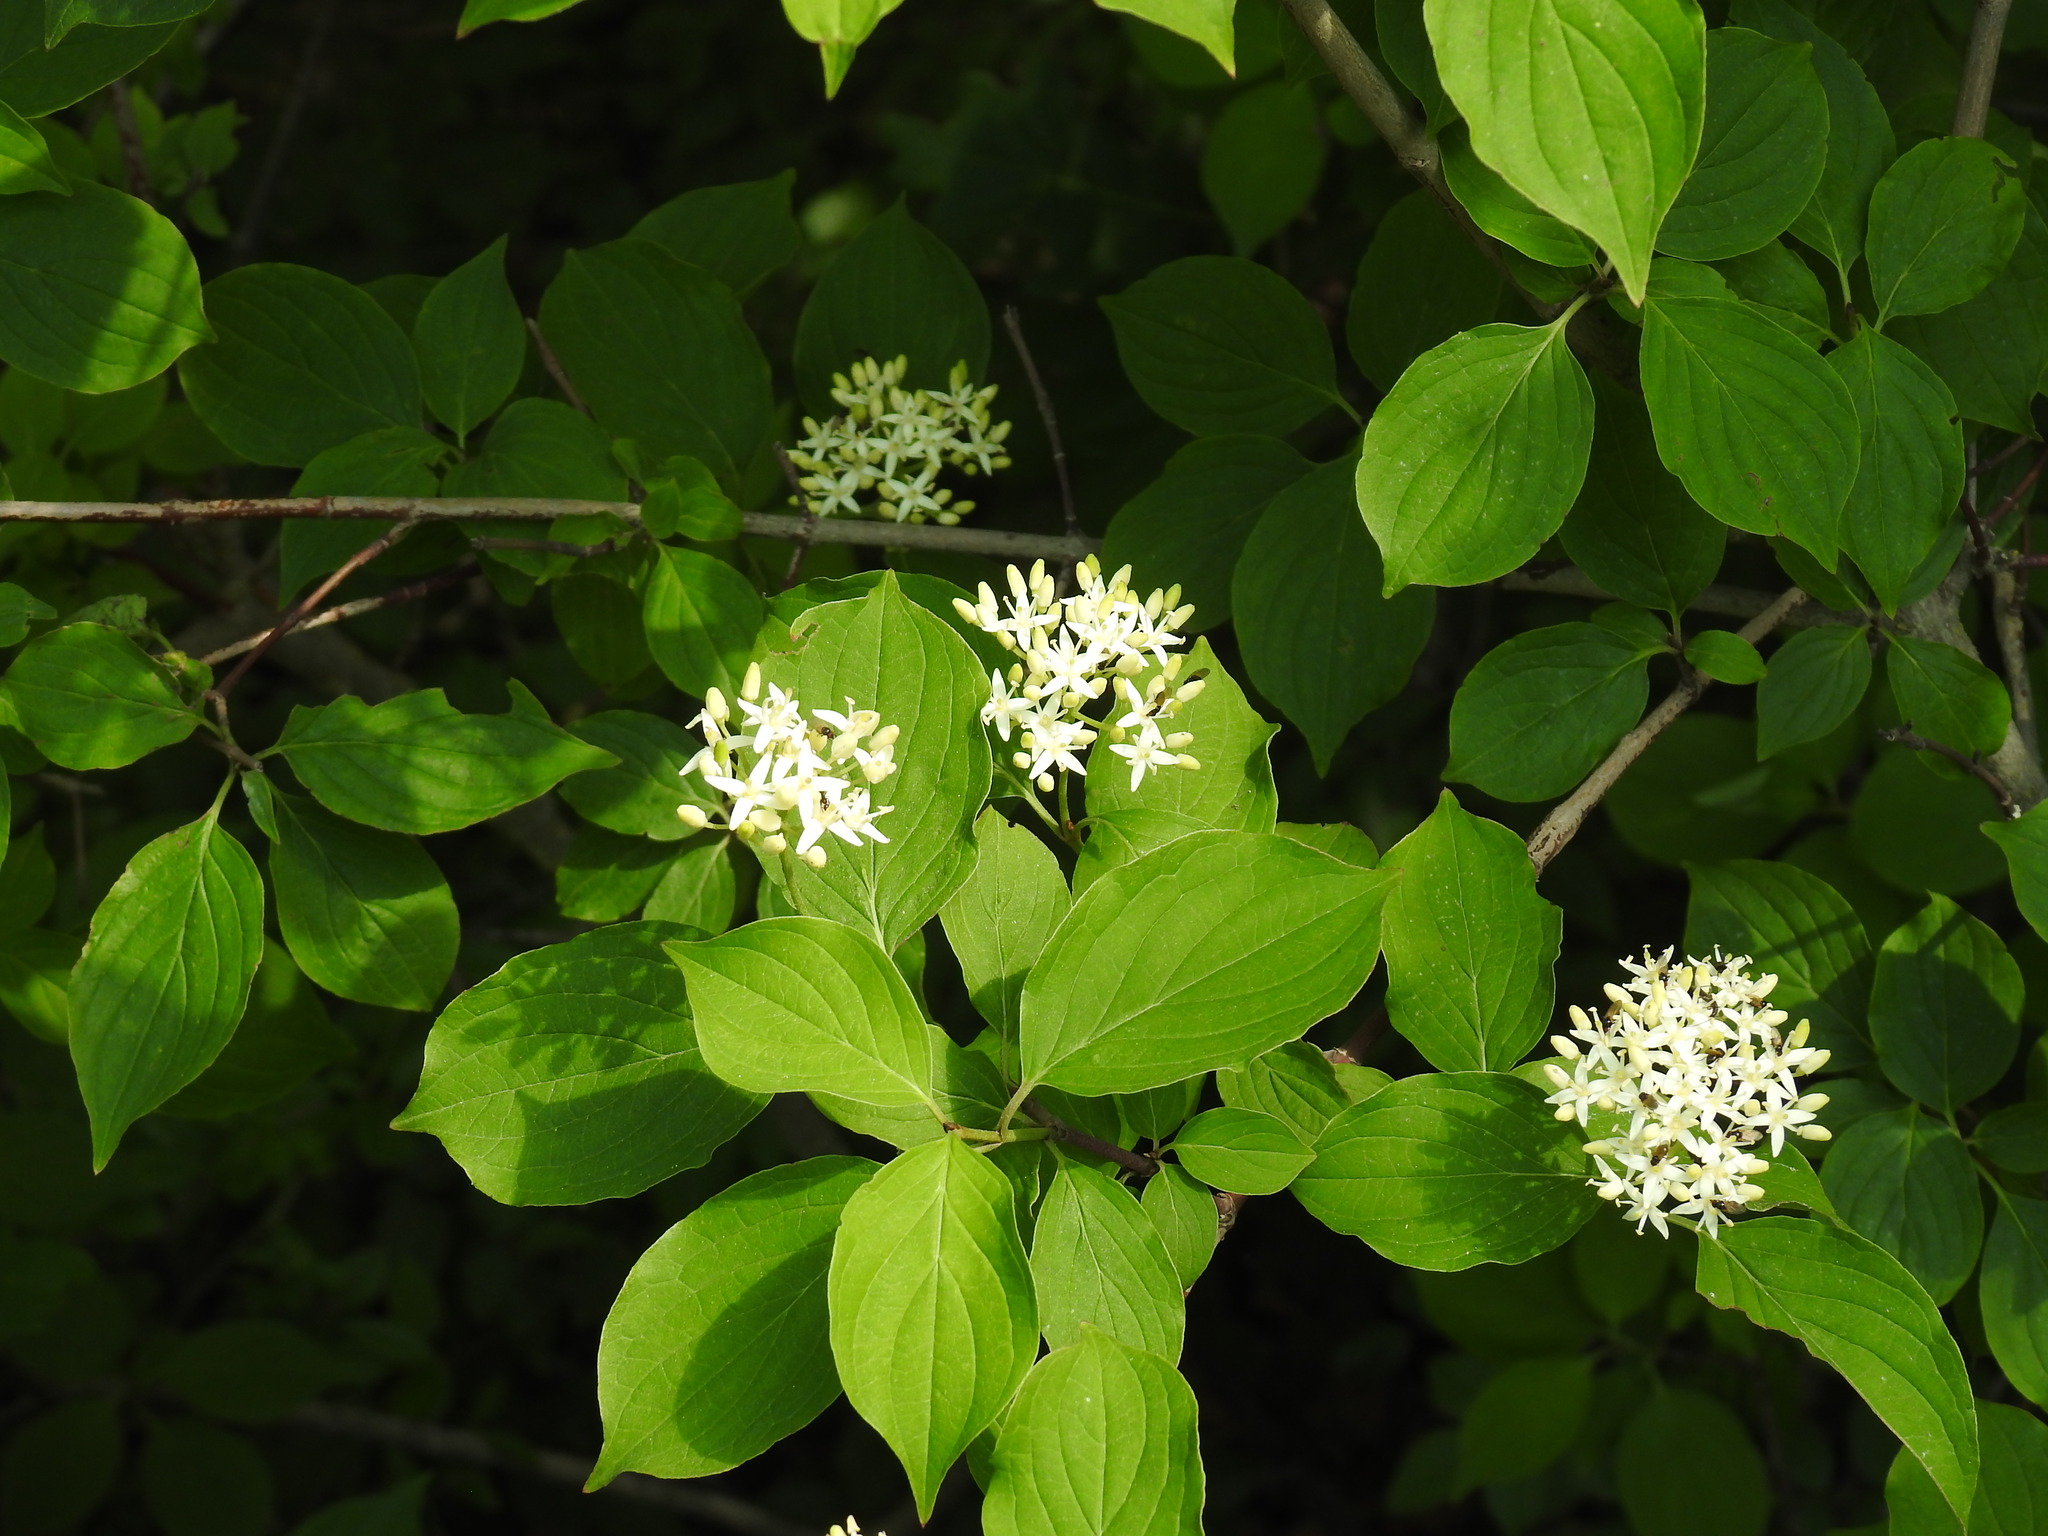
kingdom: Plantae
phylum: Tracheophyta
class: Magnoliopsida
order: Cornales
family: Cornaceae
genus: Cornus
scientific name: Cornus sanguinea
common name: Dogwood
